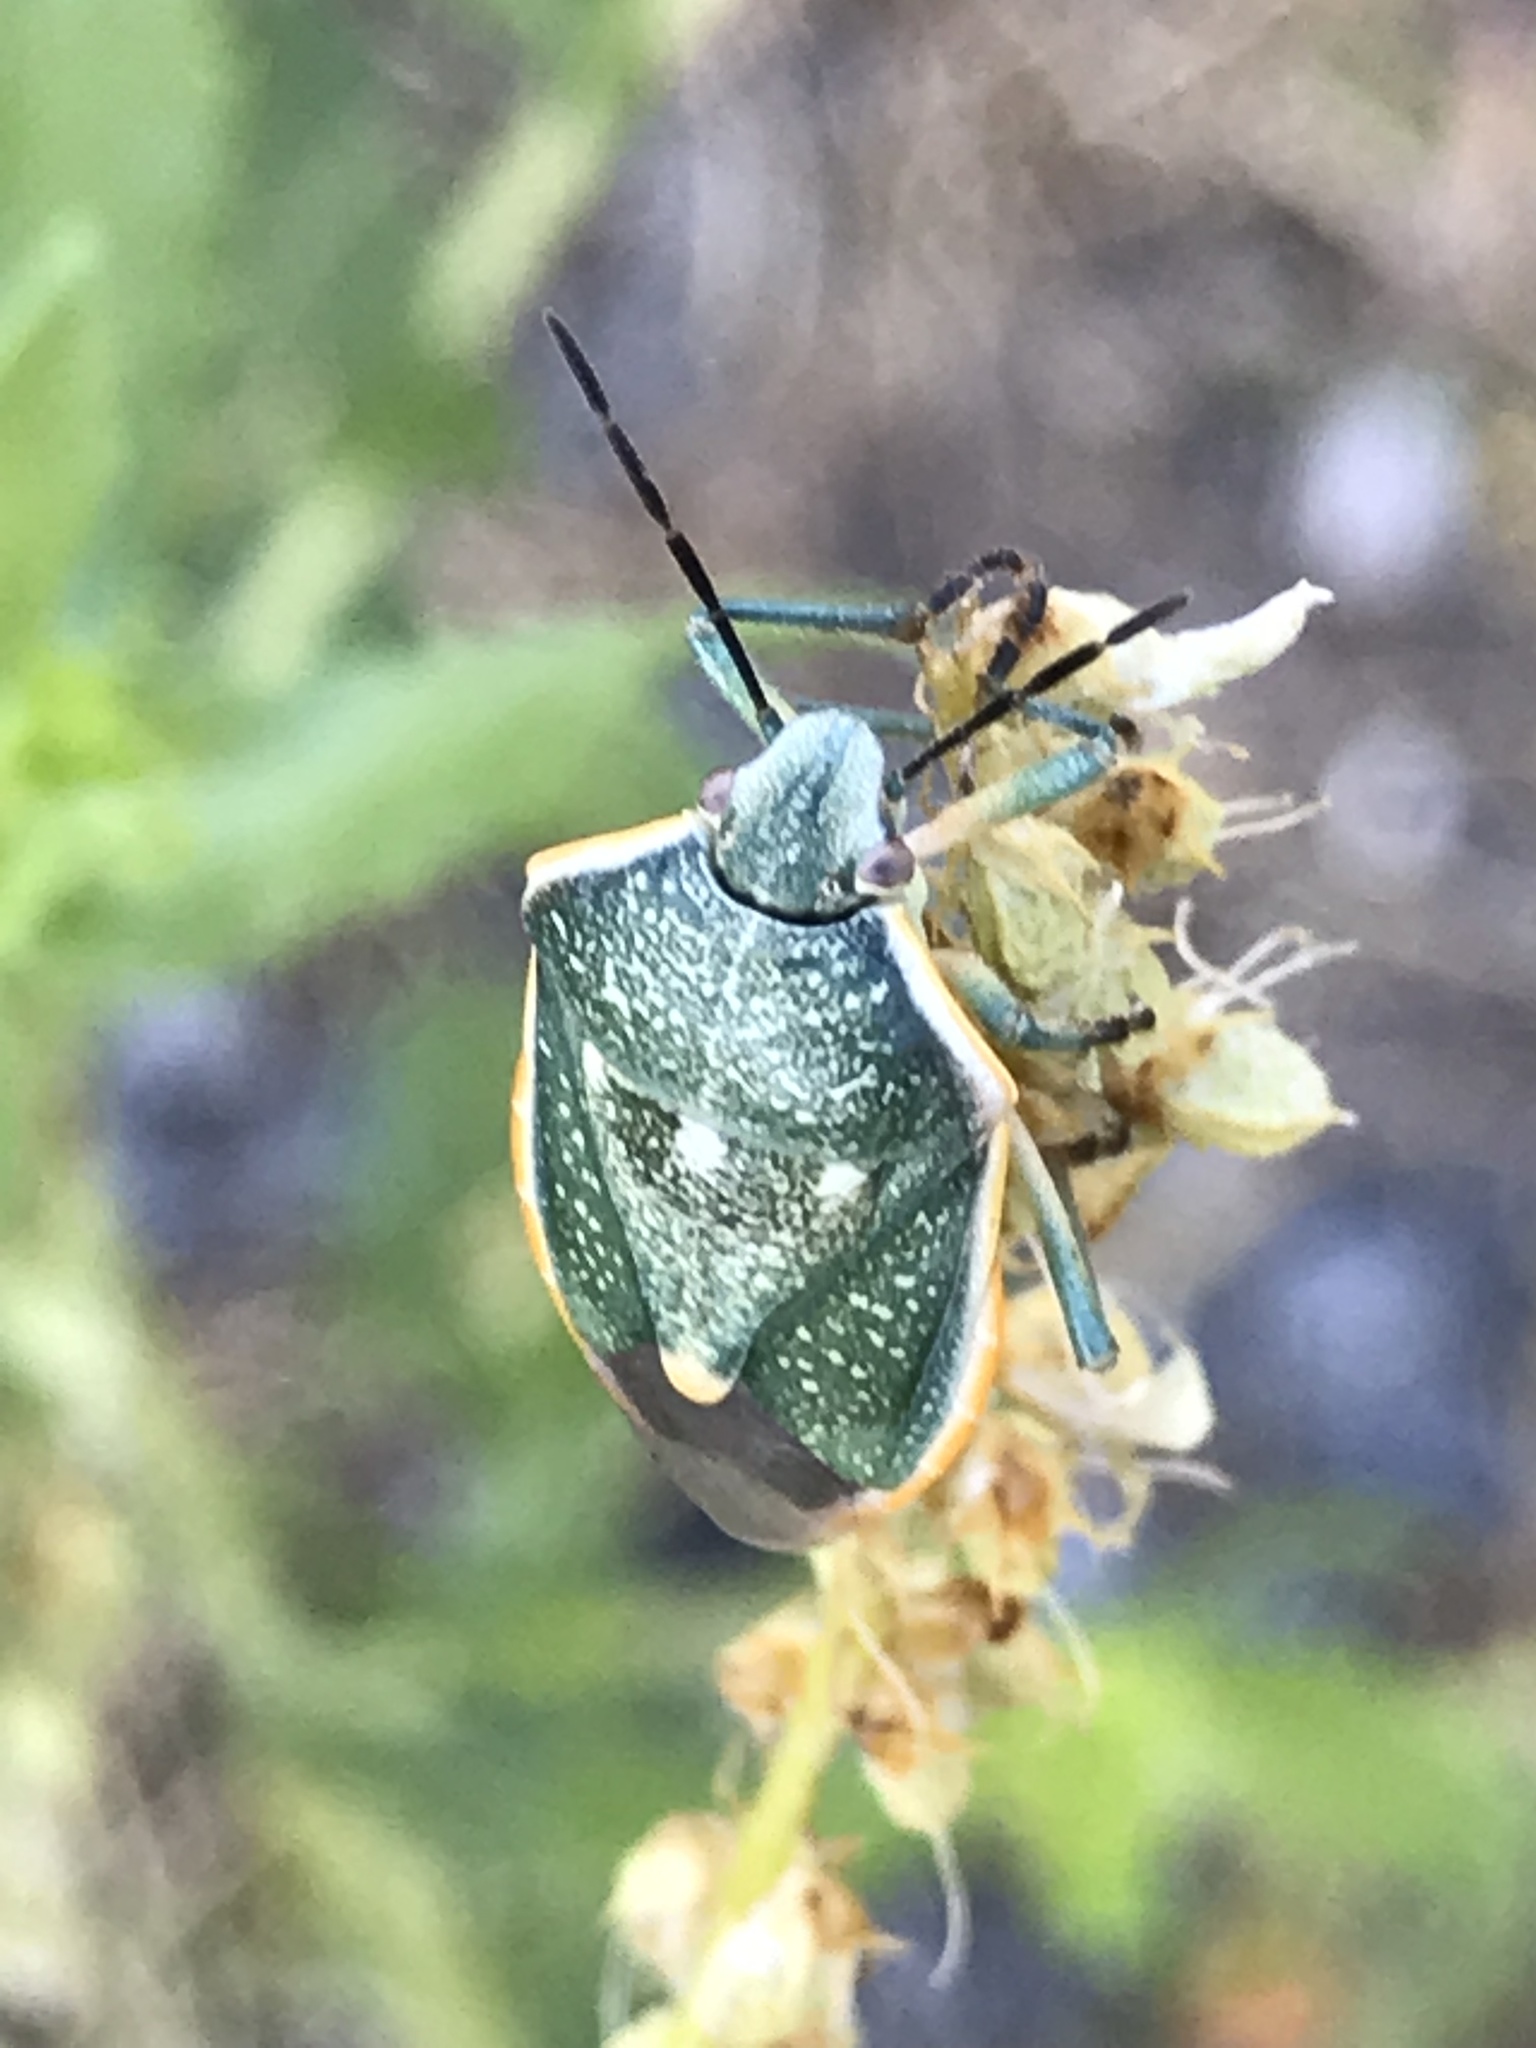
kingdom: Animalia
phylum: Arthropoda
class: Insecta
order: Hemiptera
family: Pentatomidae
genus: Chlorochroa
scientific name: Chlorochroa sayi
